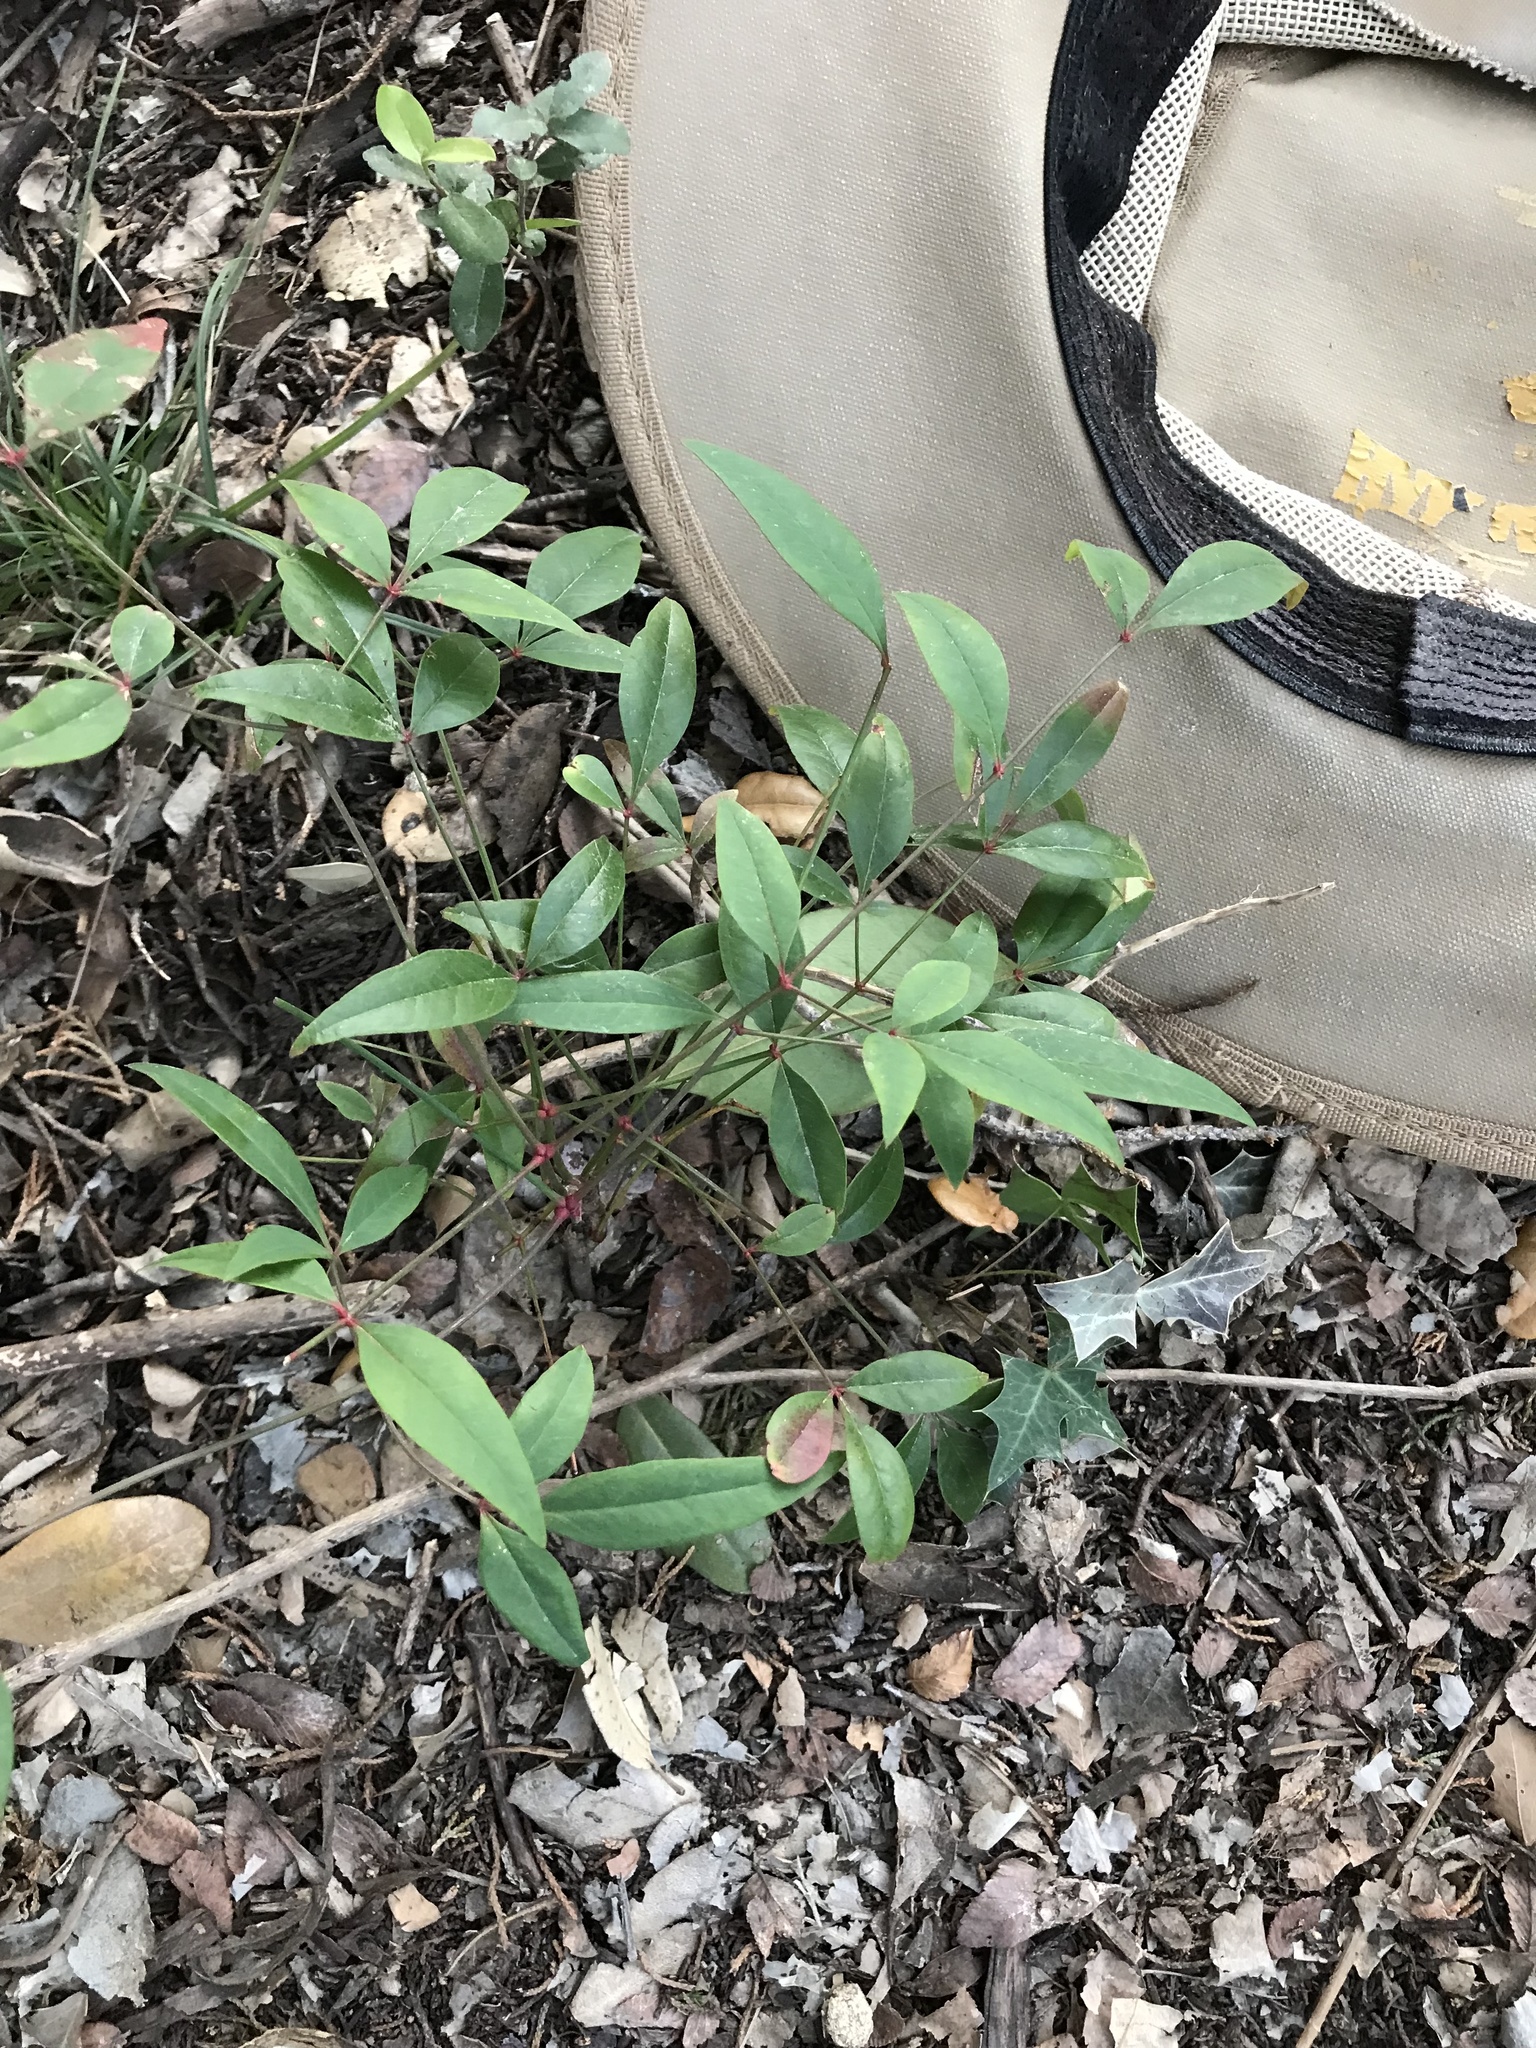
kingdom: Plantae
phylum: Tracheophyta
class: Magnoliopsida
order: Ranunculales
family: Berberidaceae
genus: Nandina
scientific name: Nandina domestica
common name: Sacred bamboo
